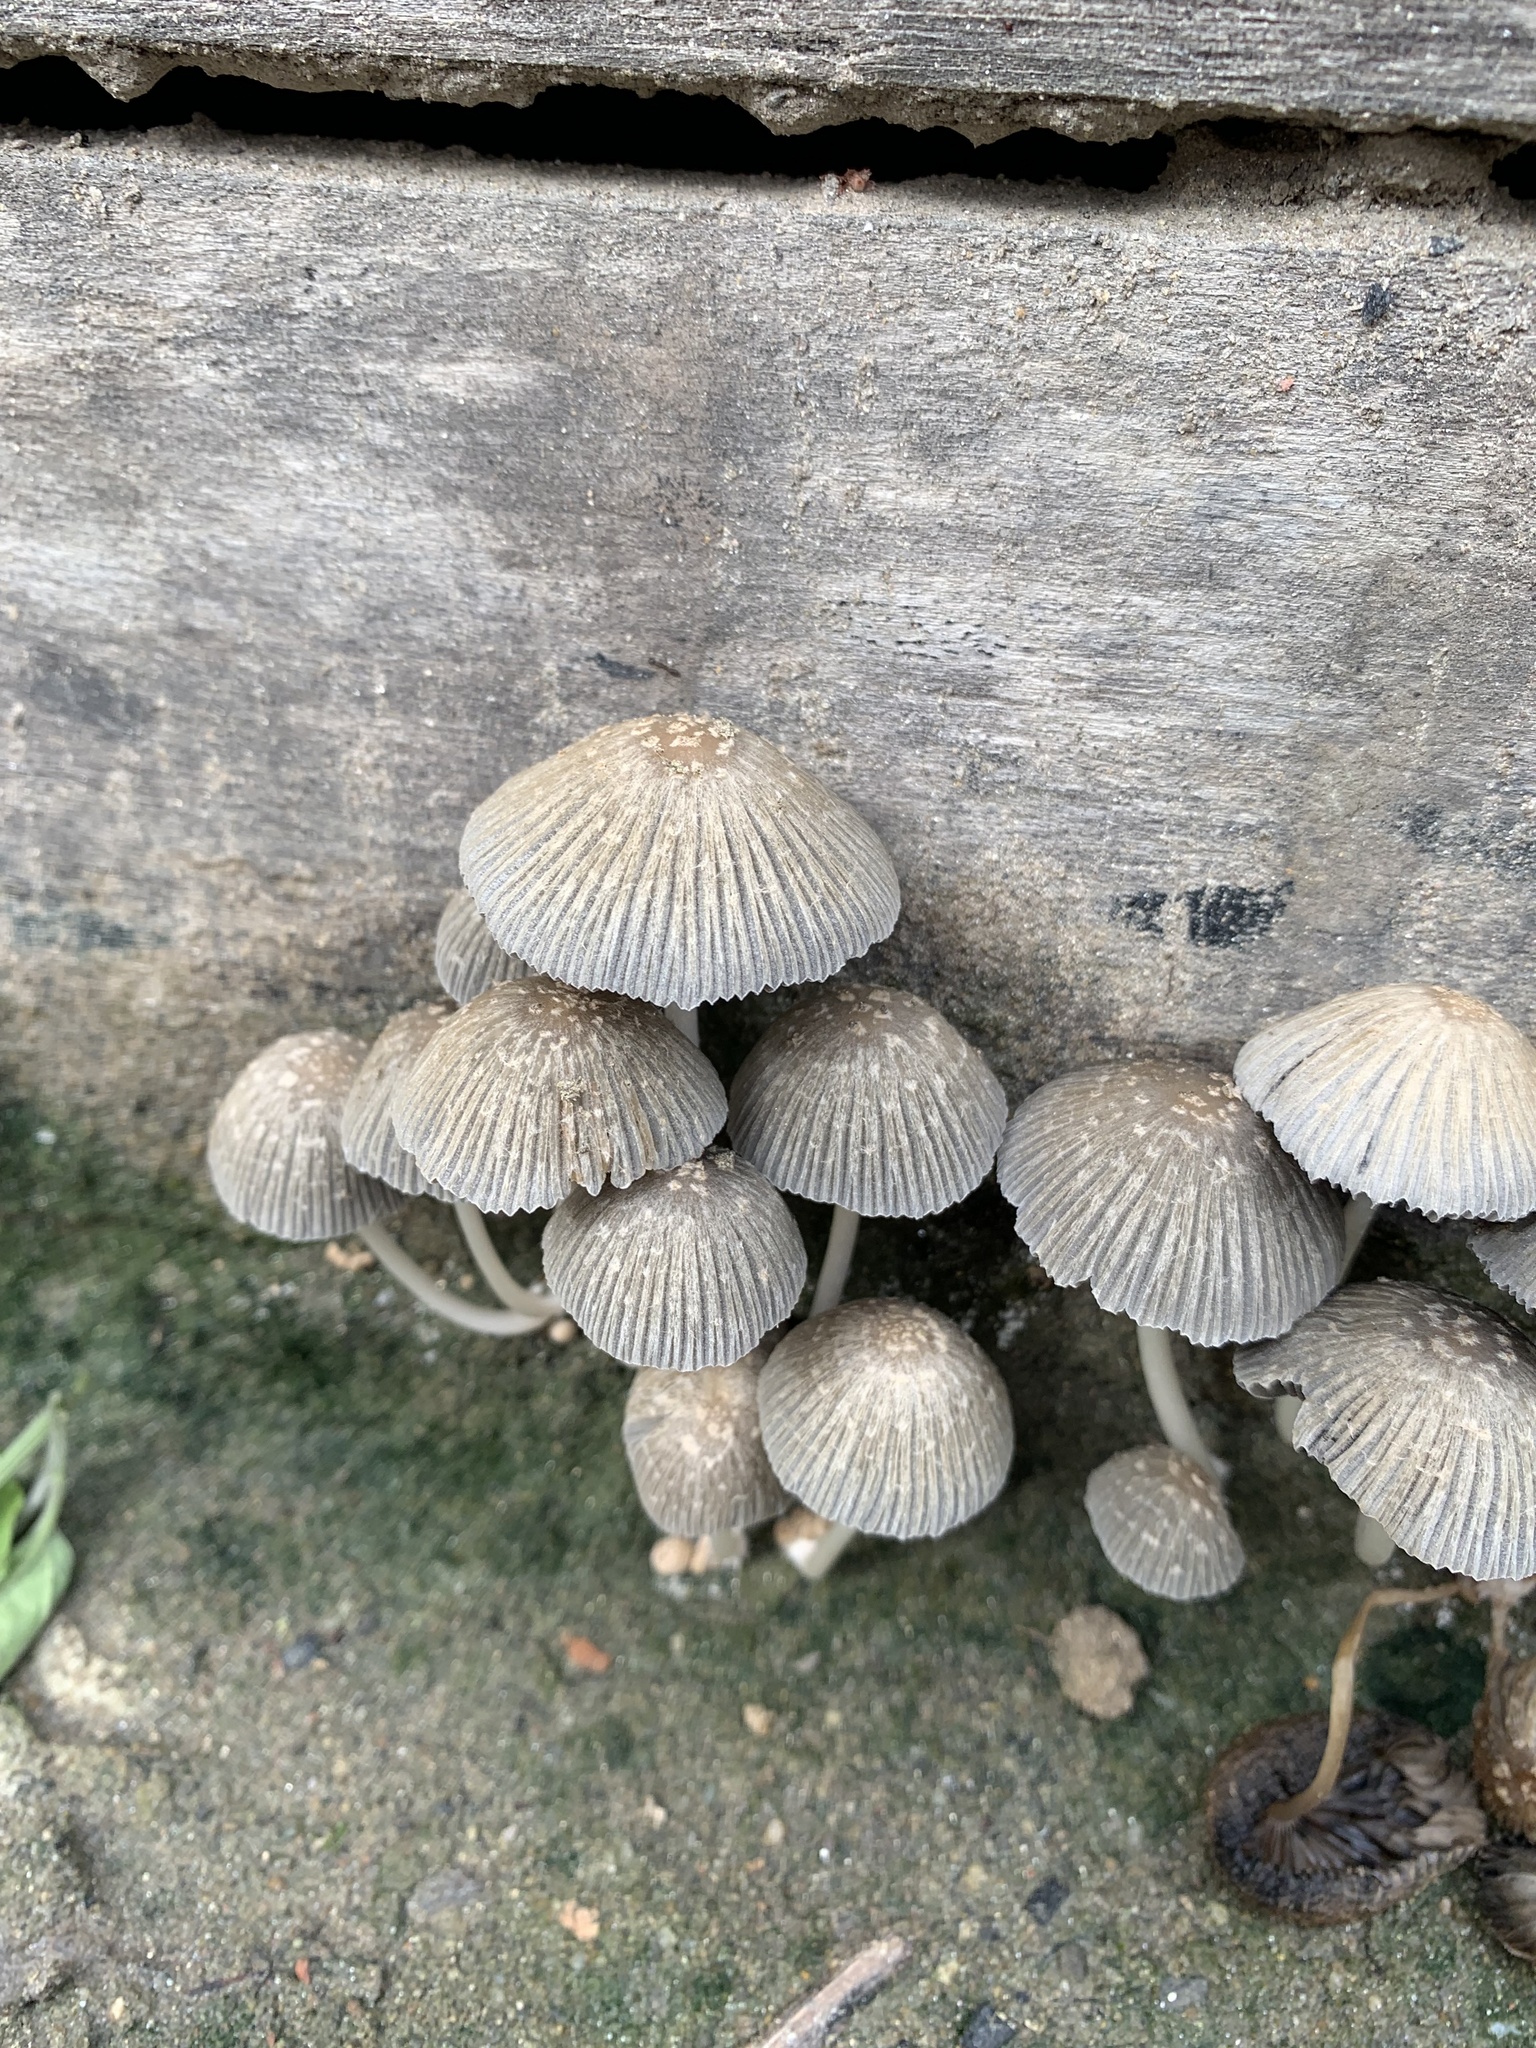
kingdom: Fungi
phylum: Basidiomycota
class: Agaricomycetes
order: Agaricales
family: Psathyrellaceae
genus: Coprinellus
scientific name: Coprinellus arenicola
